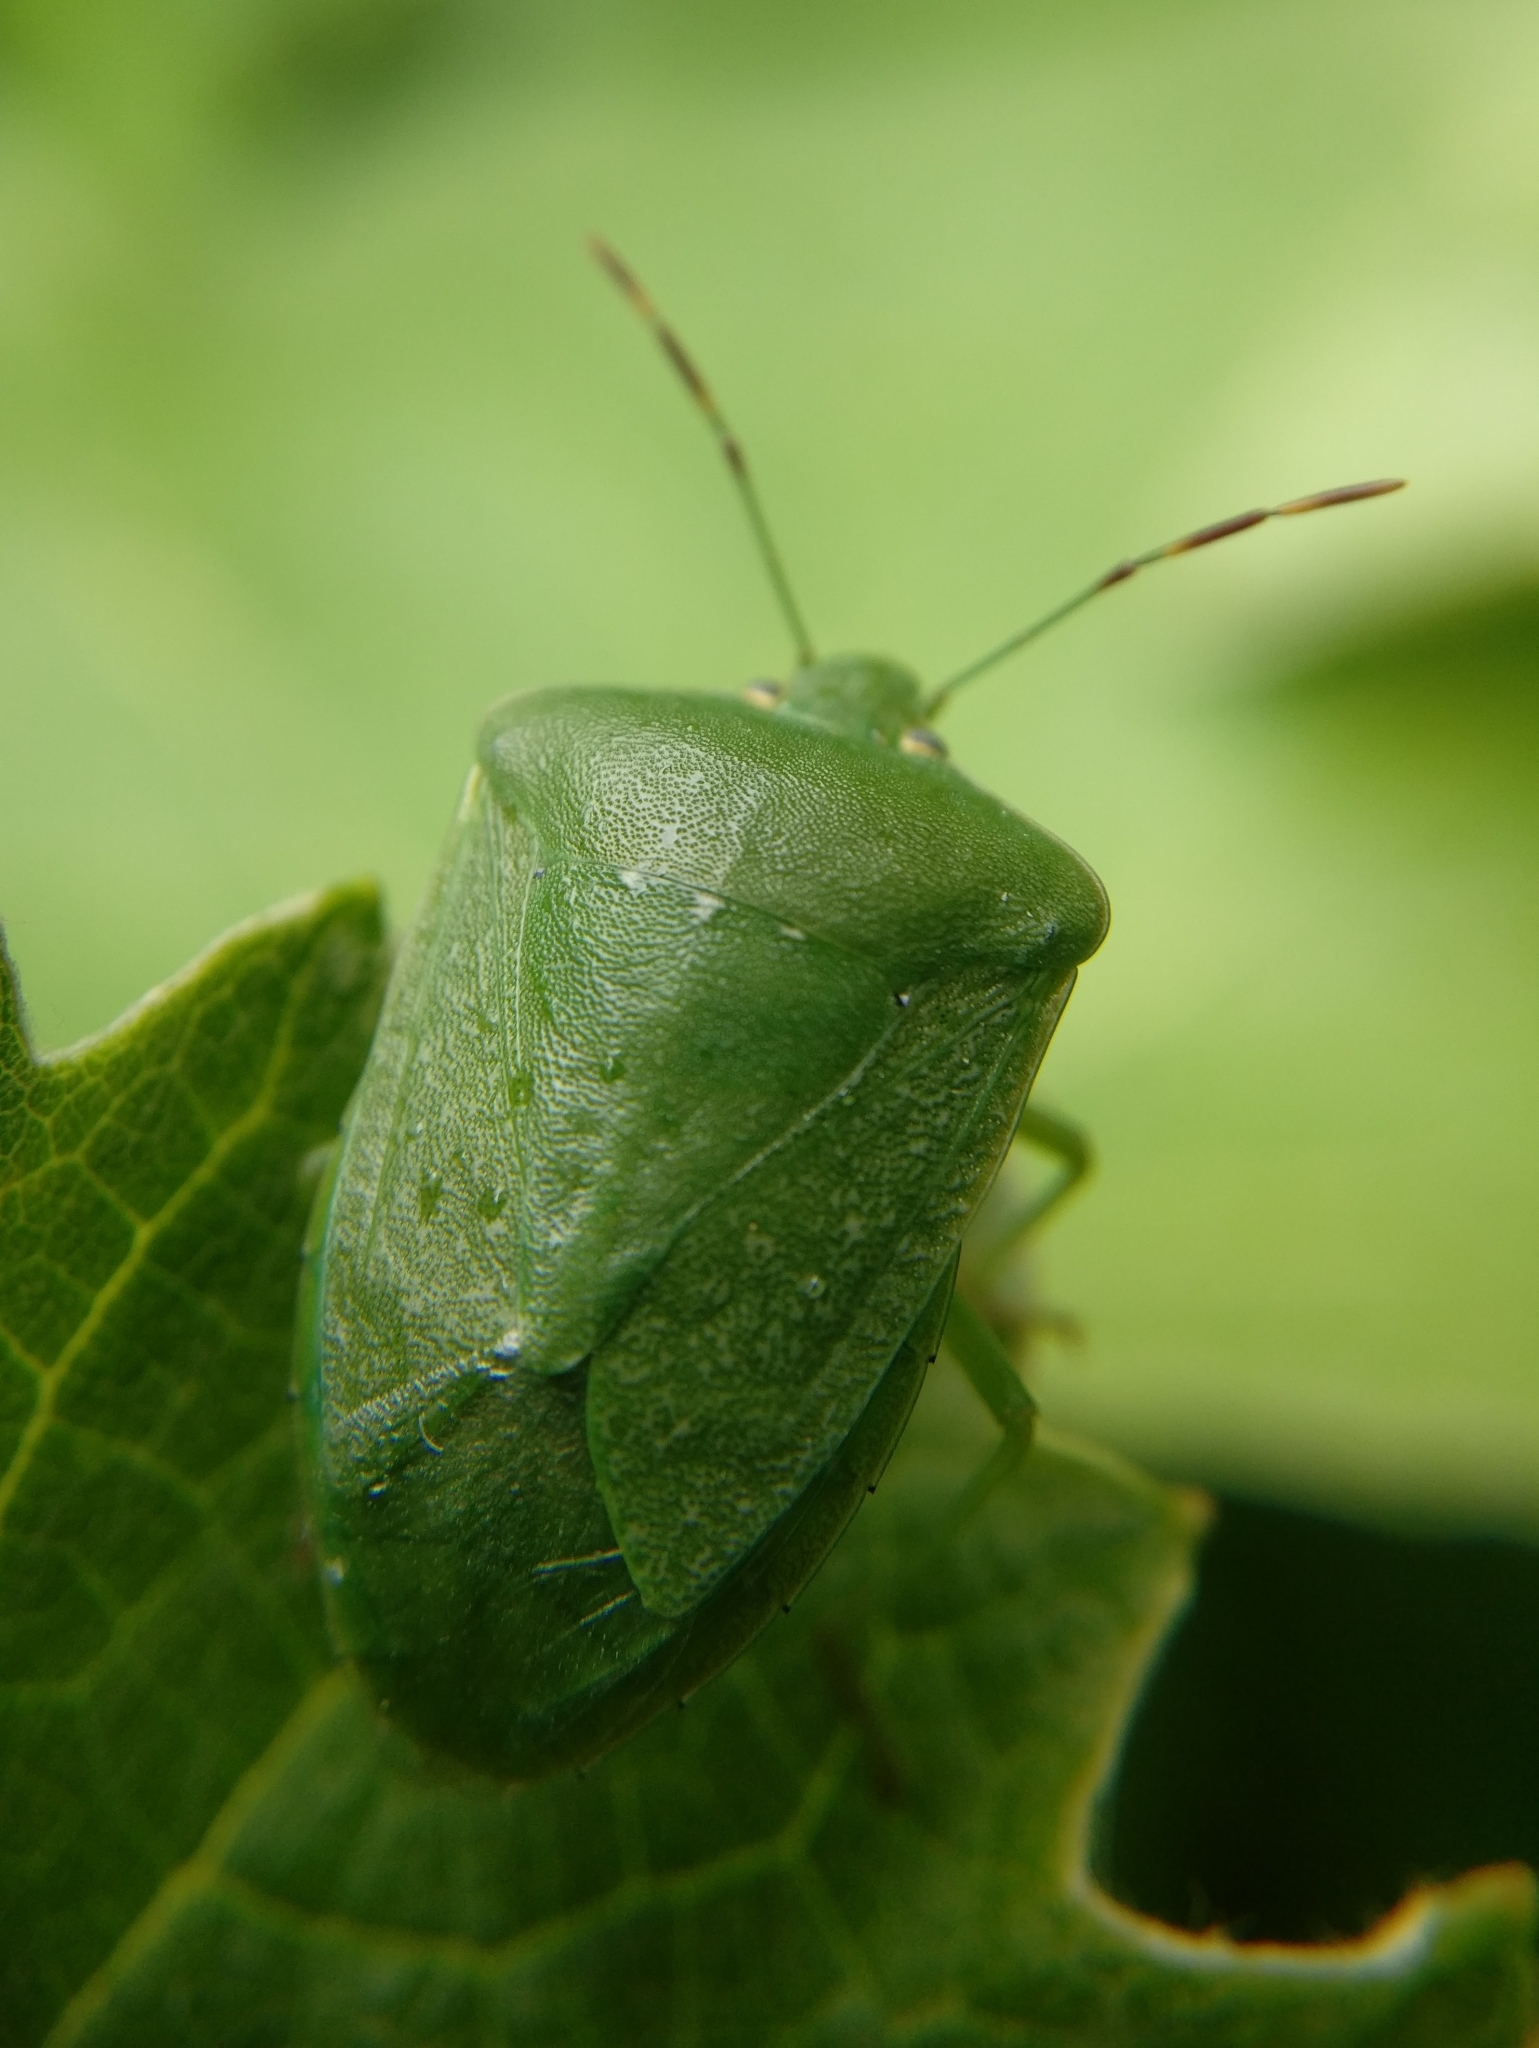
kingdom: Animalia
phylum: Arthropoda
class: Insecta
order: Hemiptera
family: Pentatomidae
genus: Nezara
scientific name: Nezara viridula
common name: Southern green stink bug
